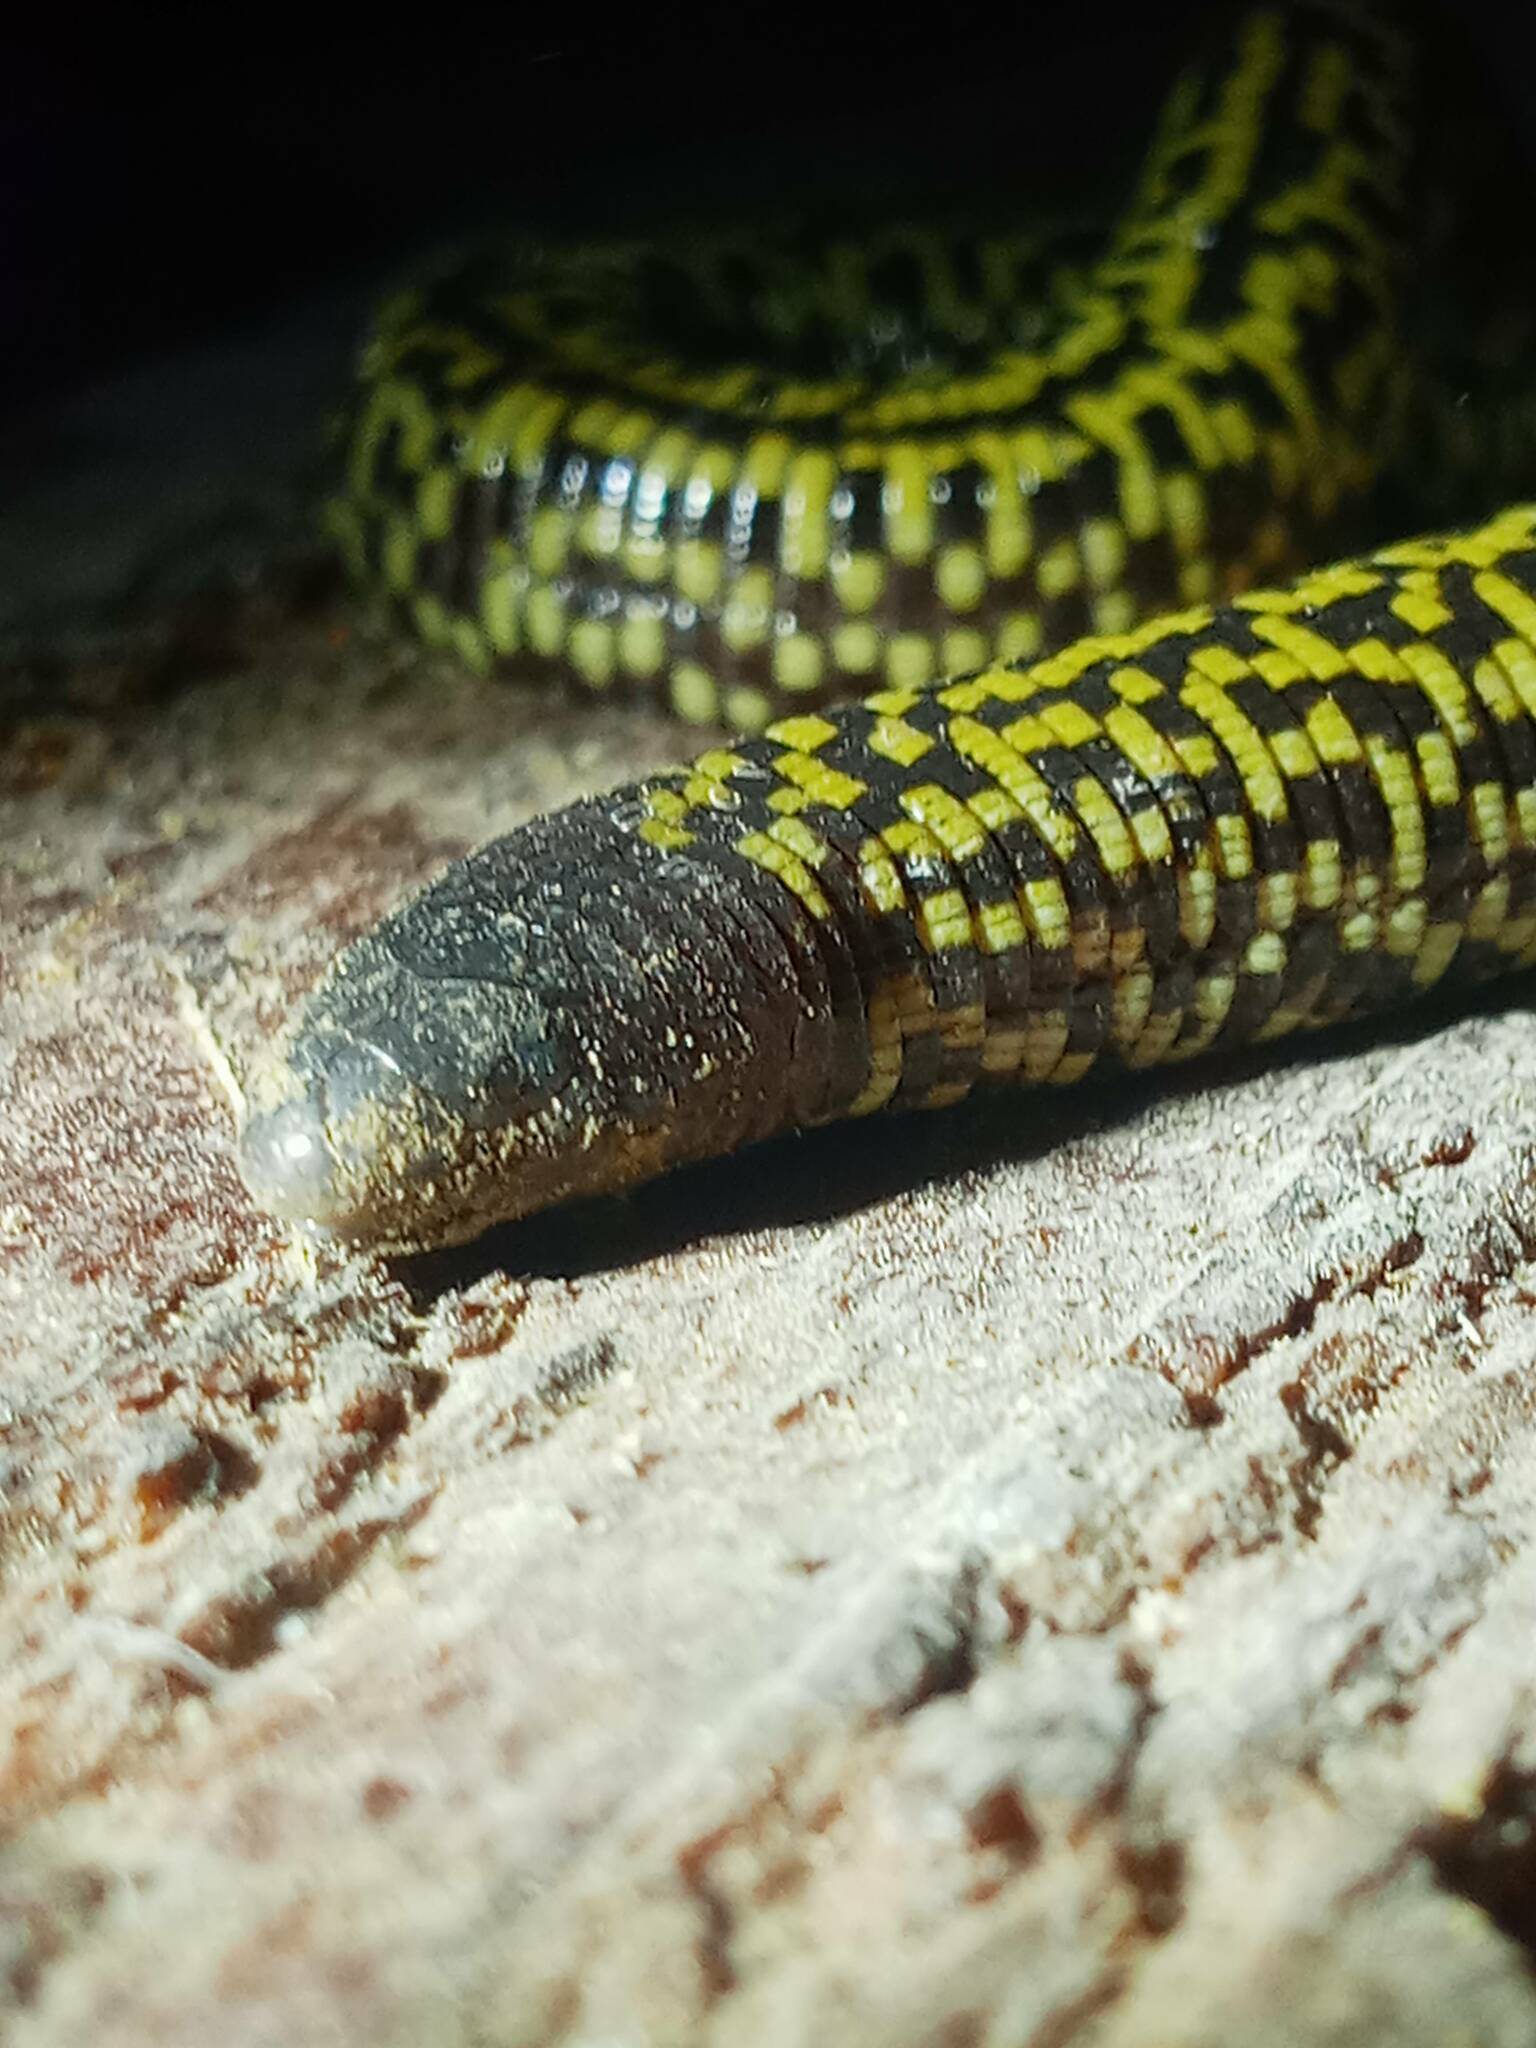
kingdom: Animalia
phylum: Chordata
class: Squamata
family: Trogonophidae
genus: Trogonophis
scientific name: Trogonophis wiegmanni
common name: Checkerboard worm lizard
